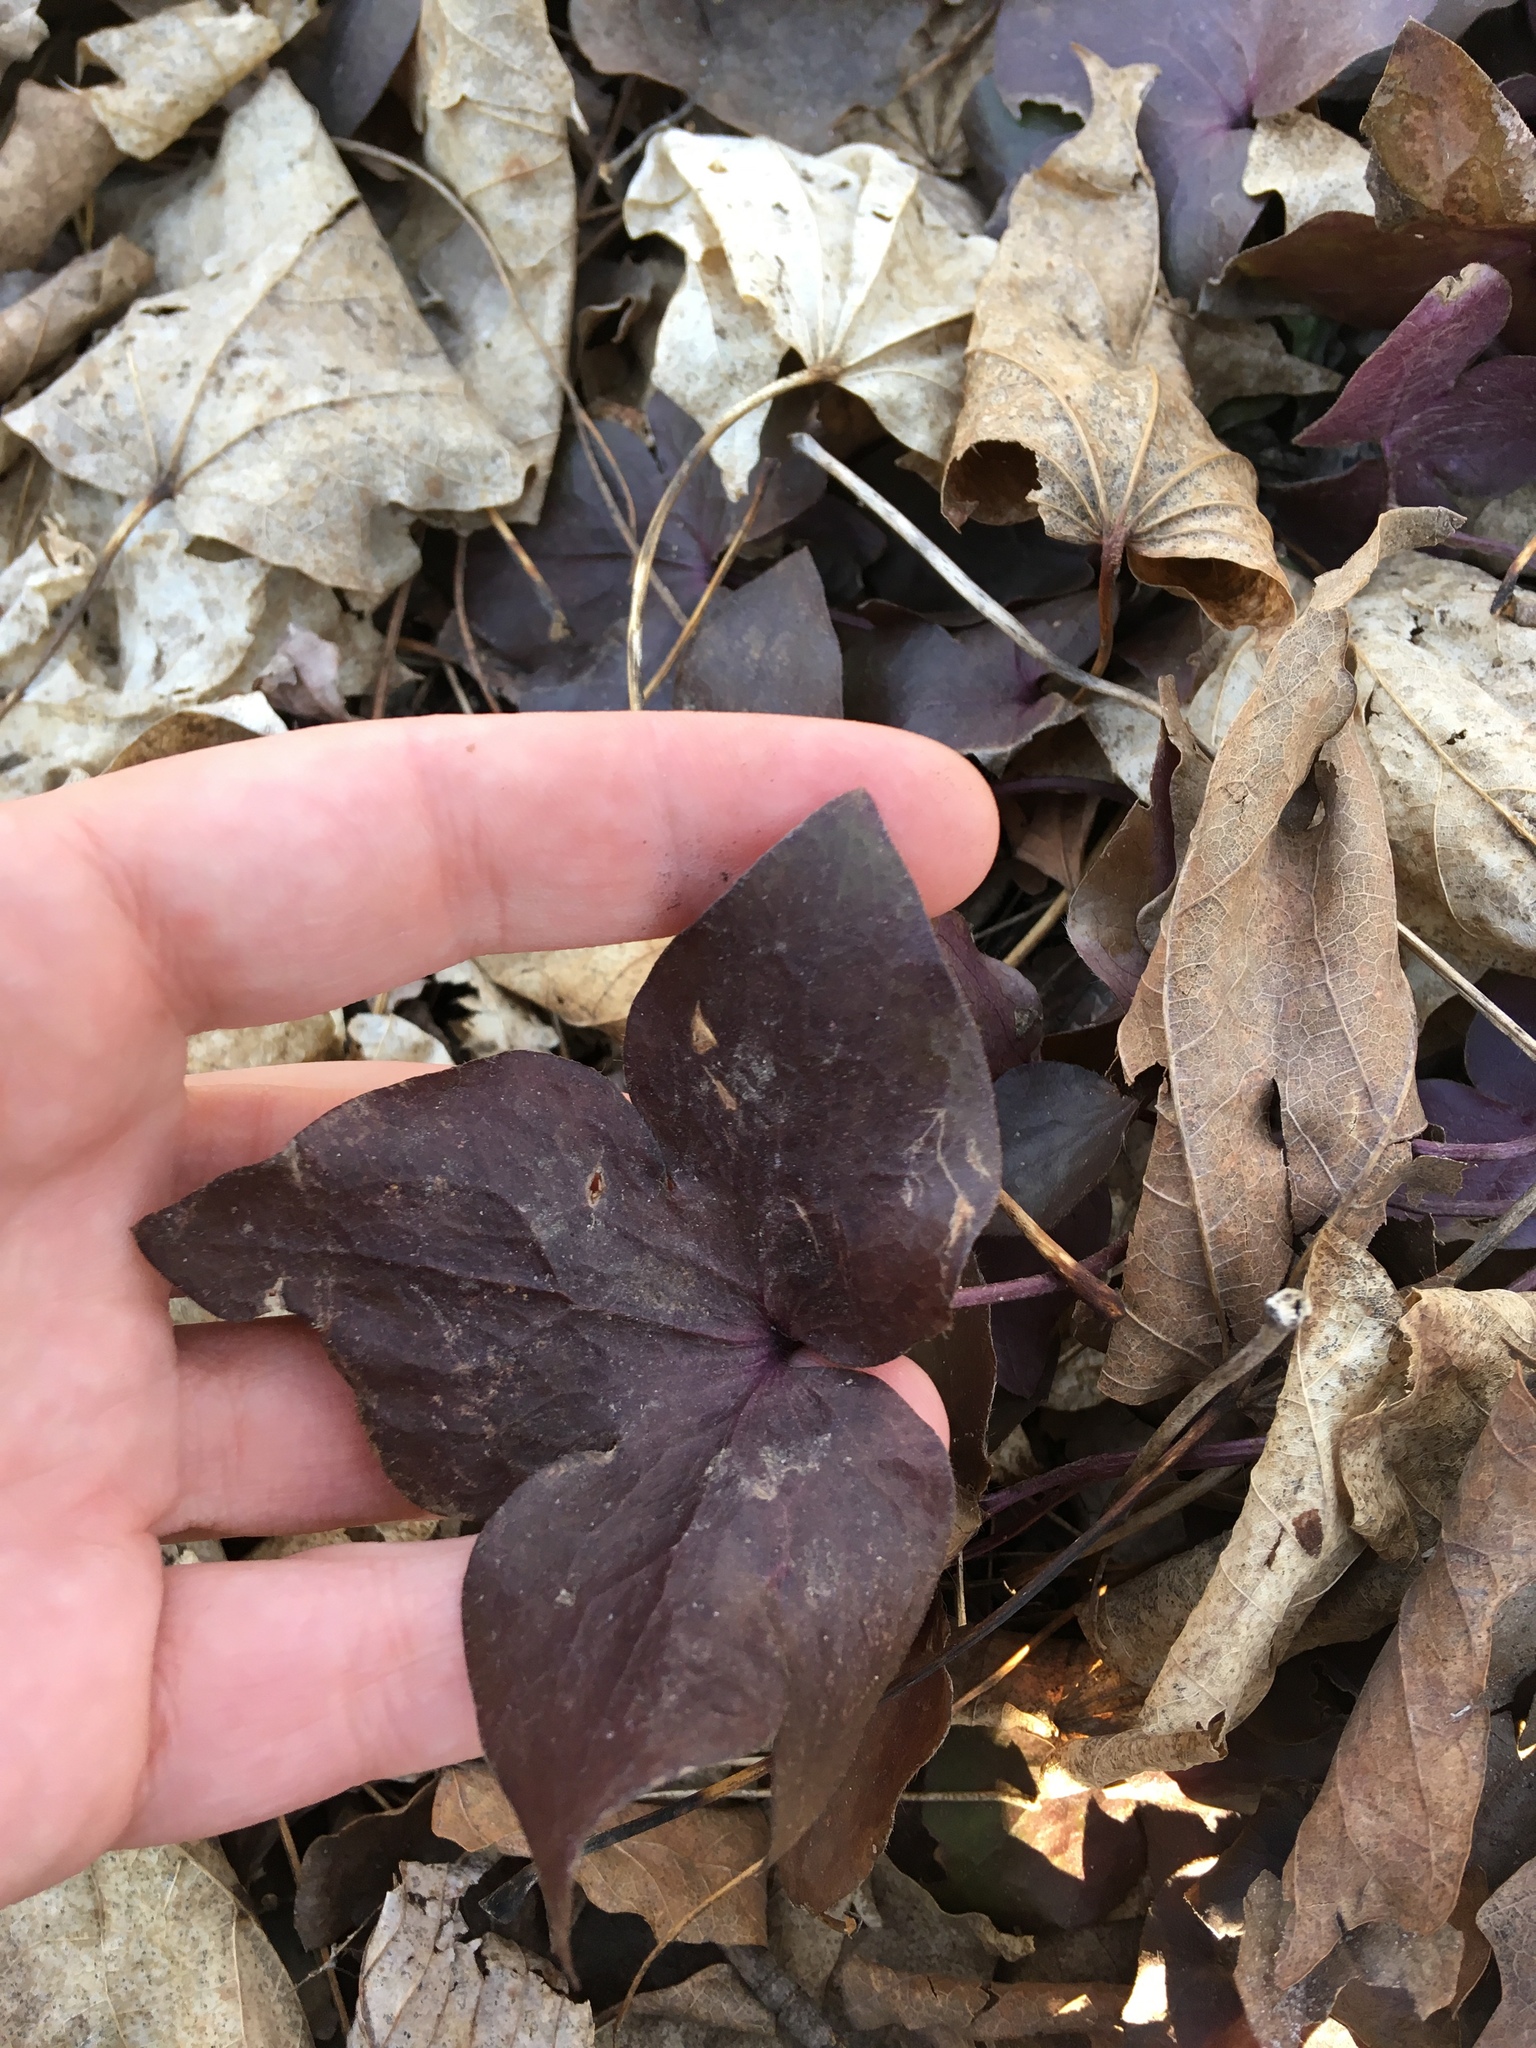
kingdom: Plantae
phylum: Tracheophyta
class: Magnoliopsida
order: Ranunculales
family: Ranunculaceae
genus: Hepatica
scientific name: Hepatica acutiloba
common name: Sharp-lobed hepatica
